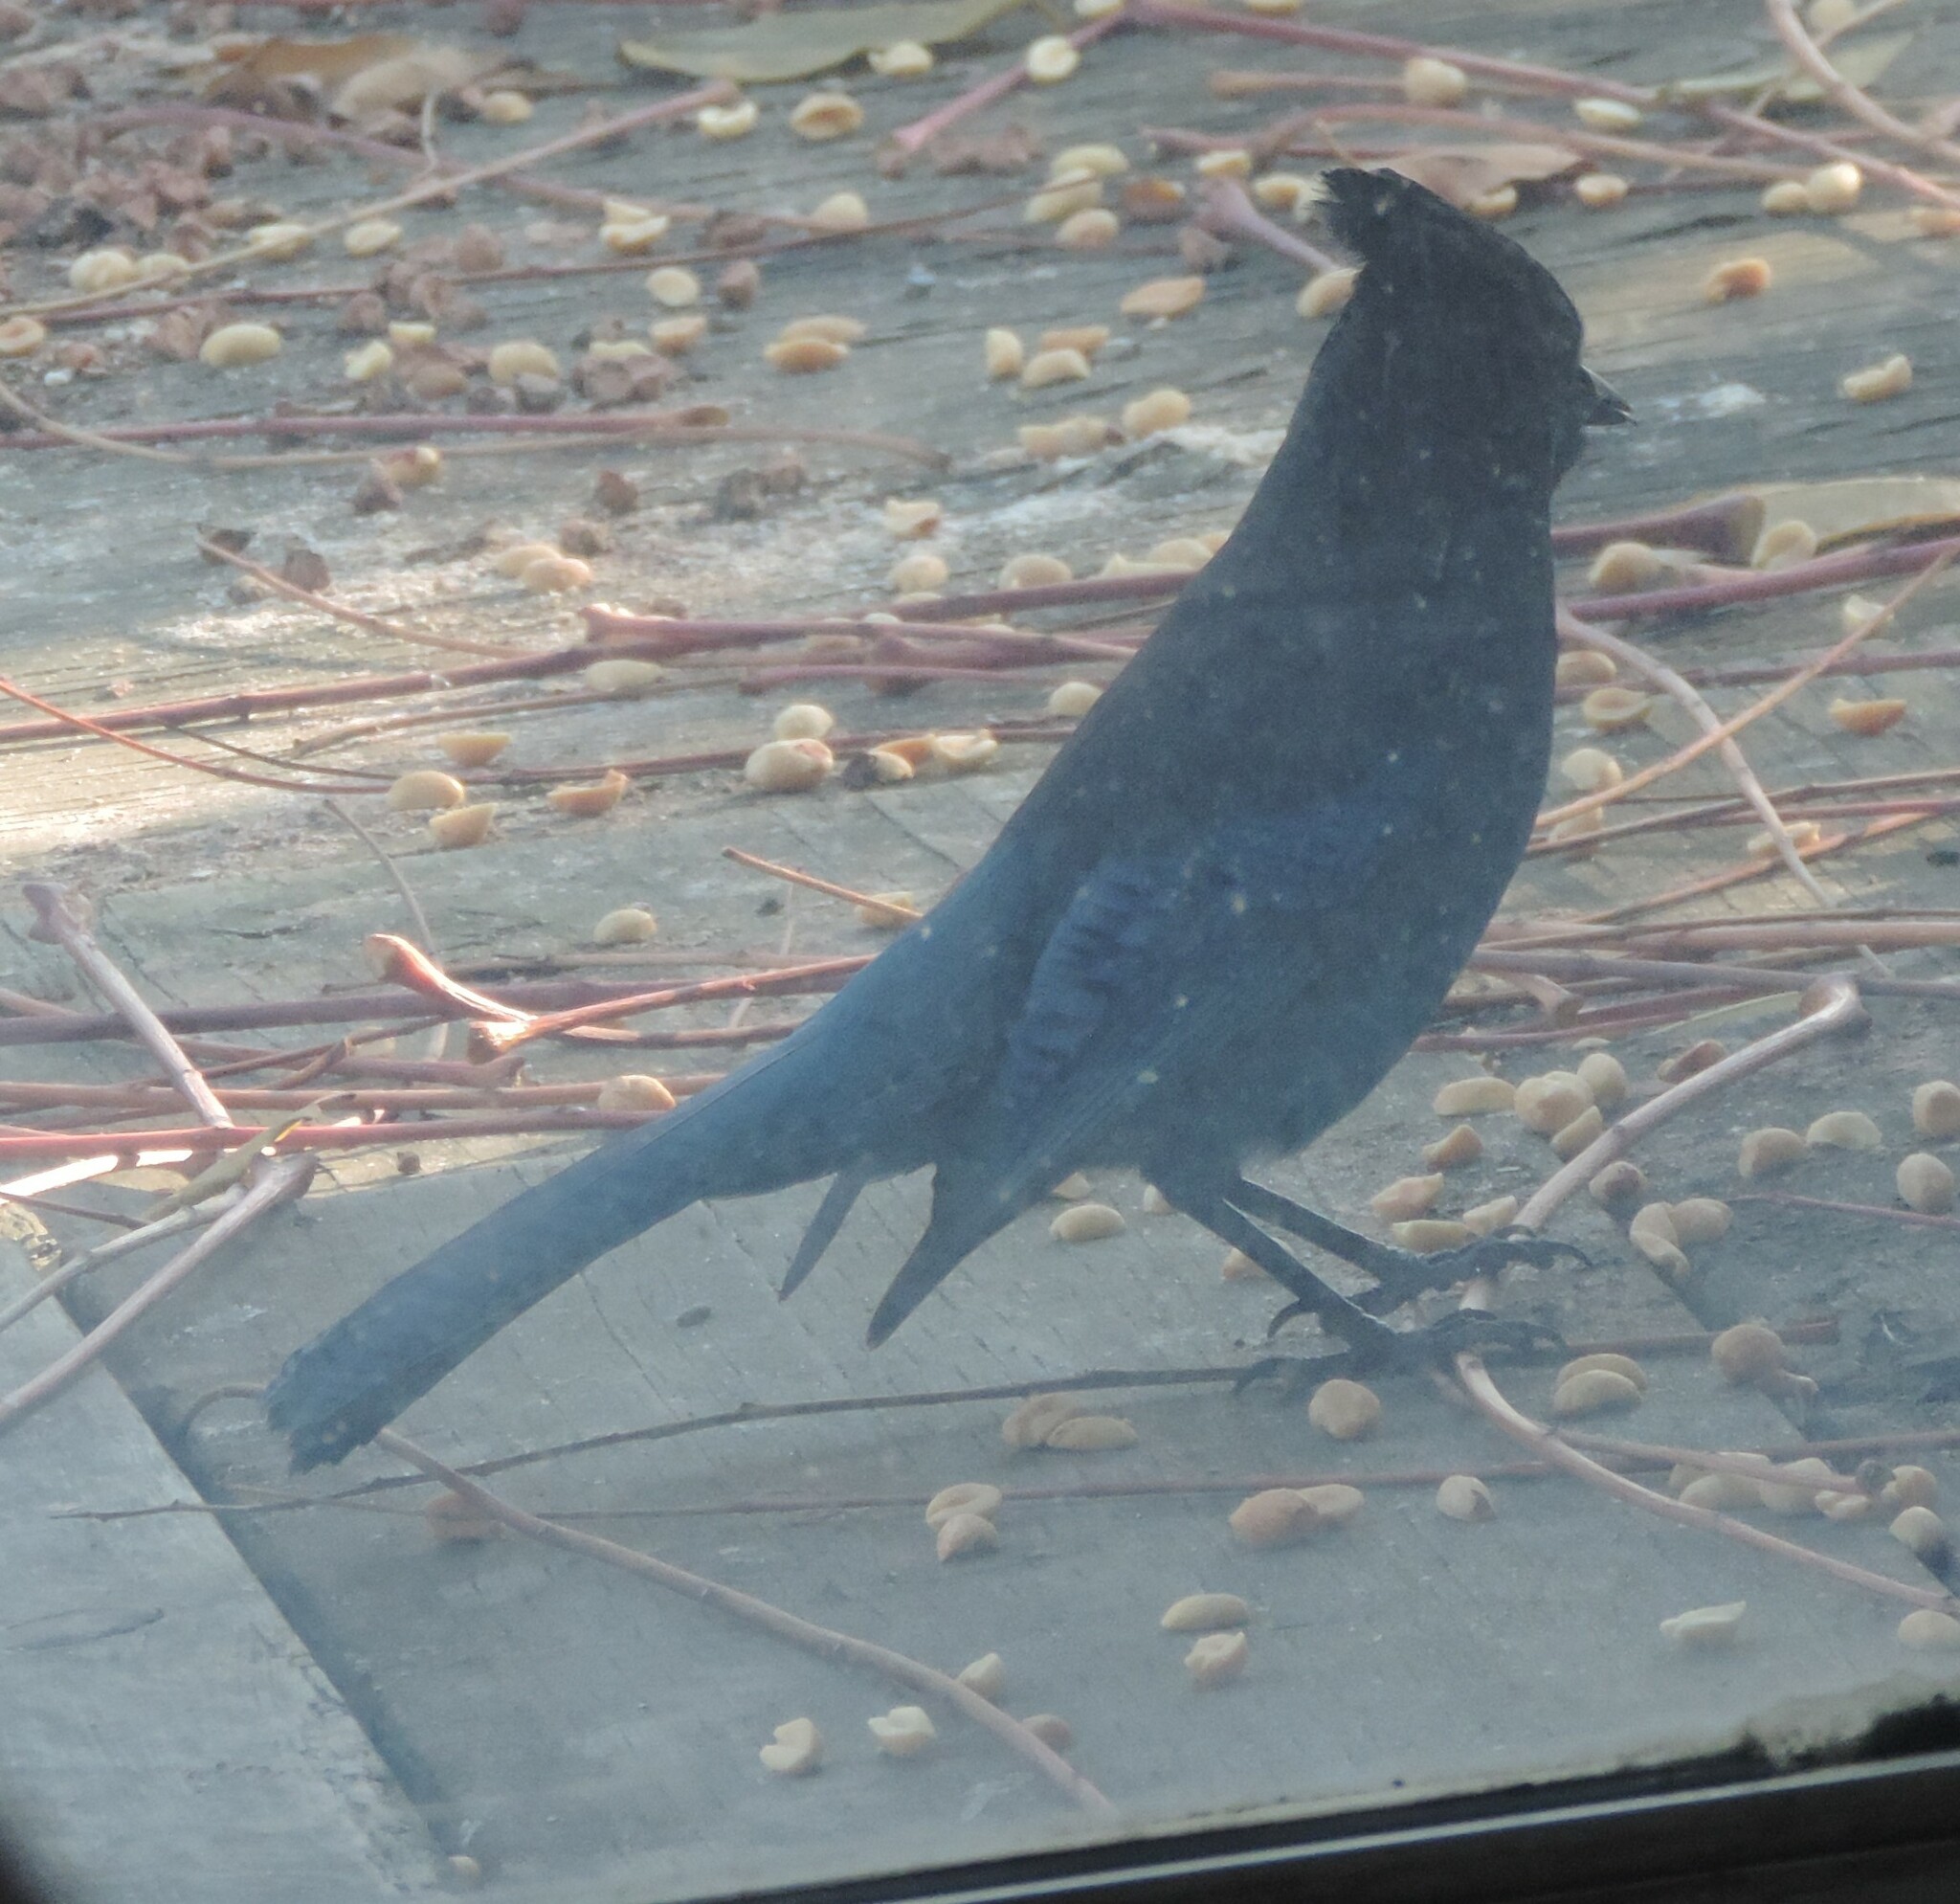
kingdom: Animalia
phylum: Chordata
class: Aves
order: Passeriformes
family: Corvidae
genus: Cyanocitta
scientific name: Cyanocitta stelleri
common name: Steller's jay
